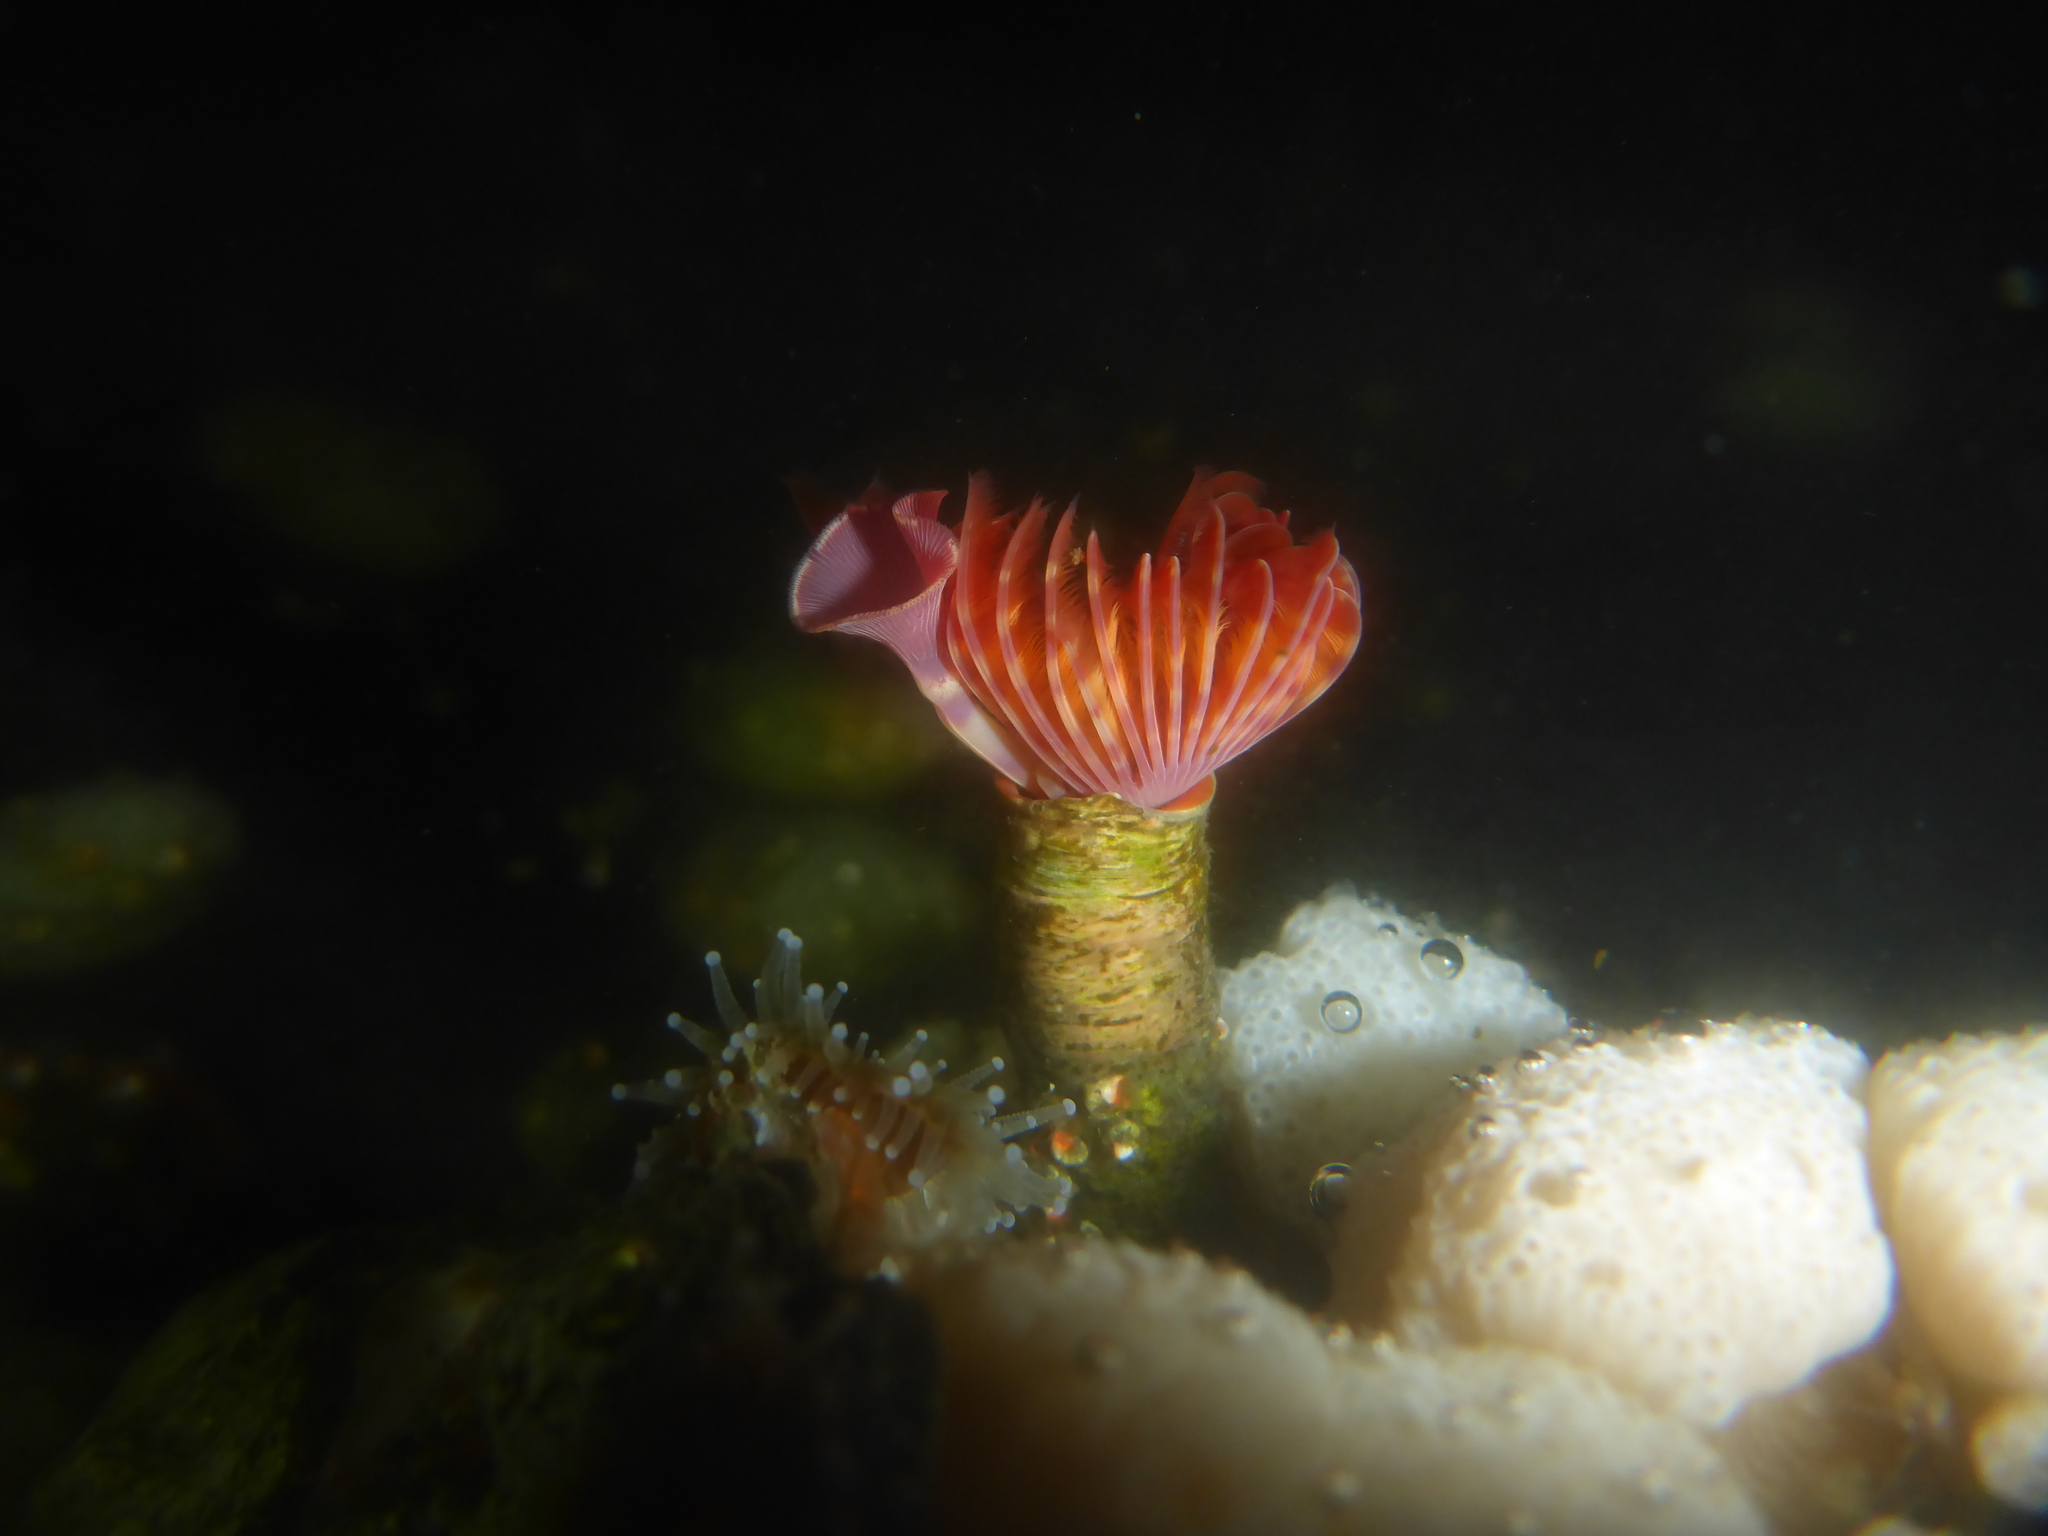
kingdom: Animalia
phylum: Annelida
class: Polychaeta
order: Sabellida
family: Serpulidae
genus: Serpula
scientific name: Serpula columbiana
